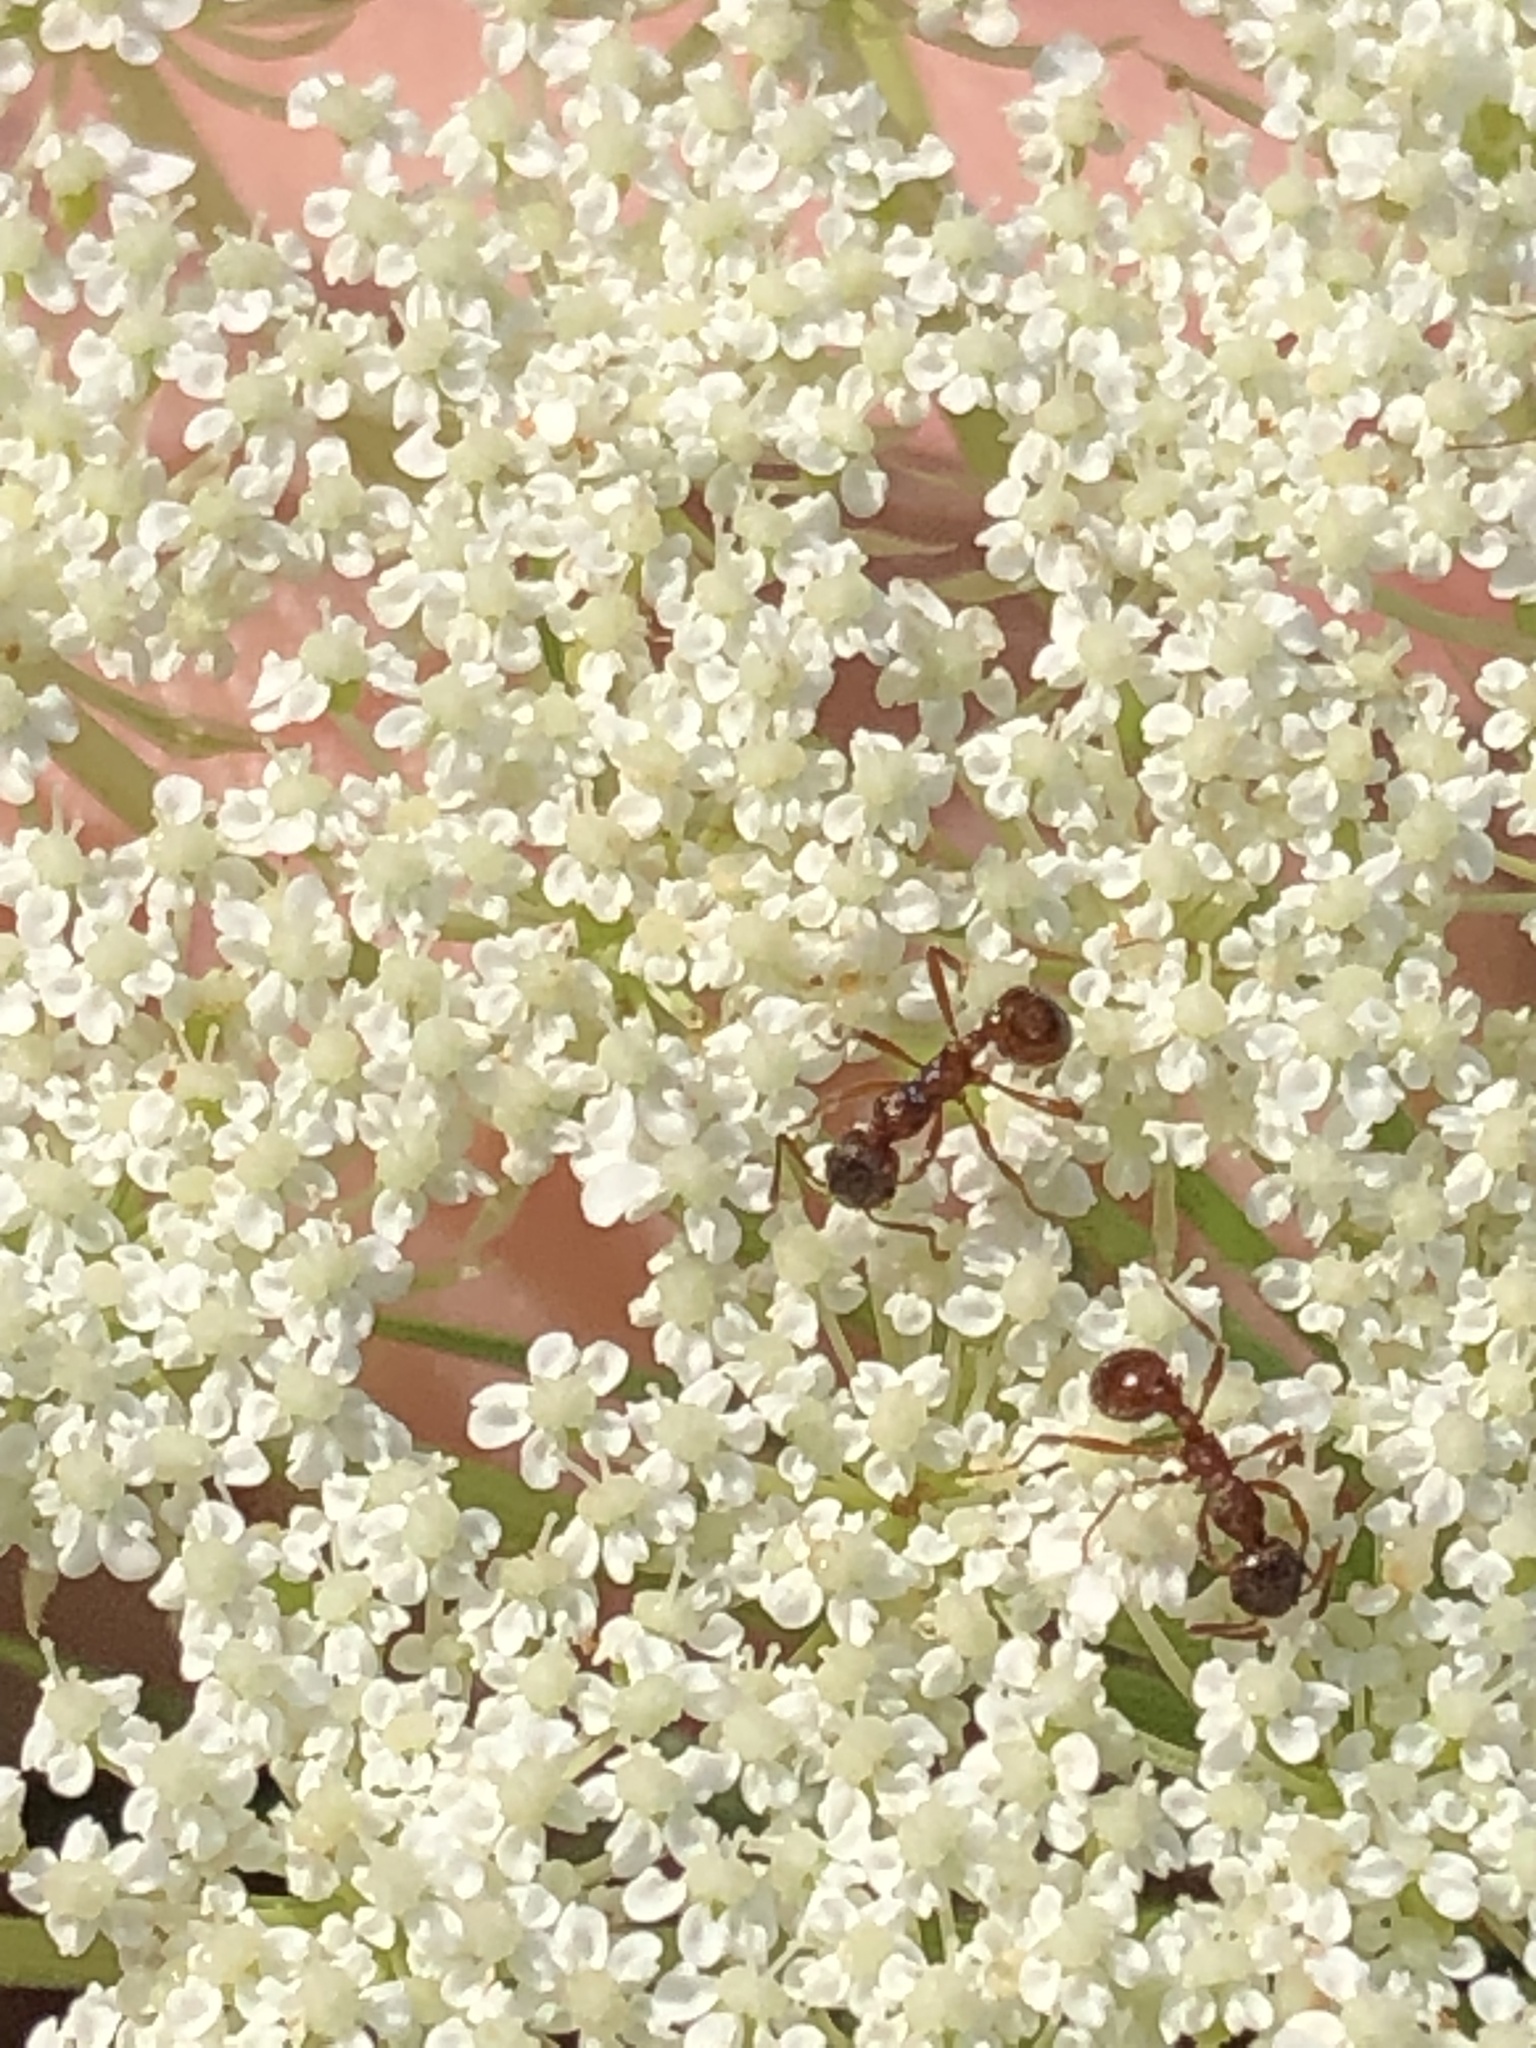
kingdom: Animalia
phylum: Arthropoda
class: Insecta
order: Hymenoptera
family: Formicidae
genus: Myrmica
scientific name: Myrmica rubra
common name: European fire ant
